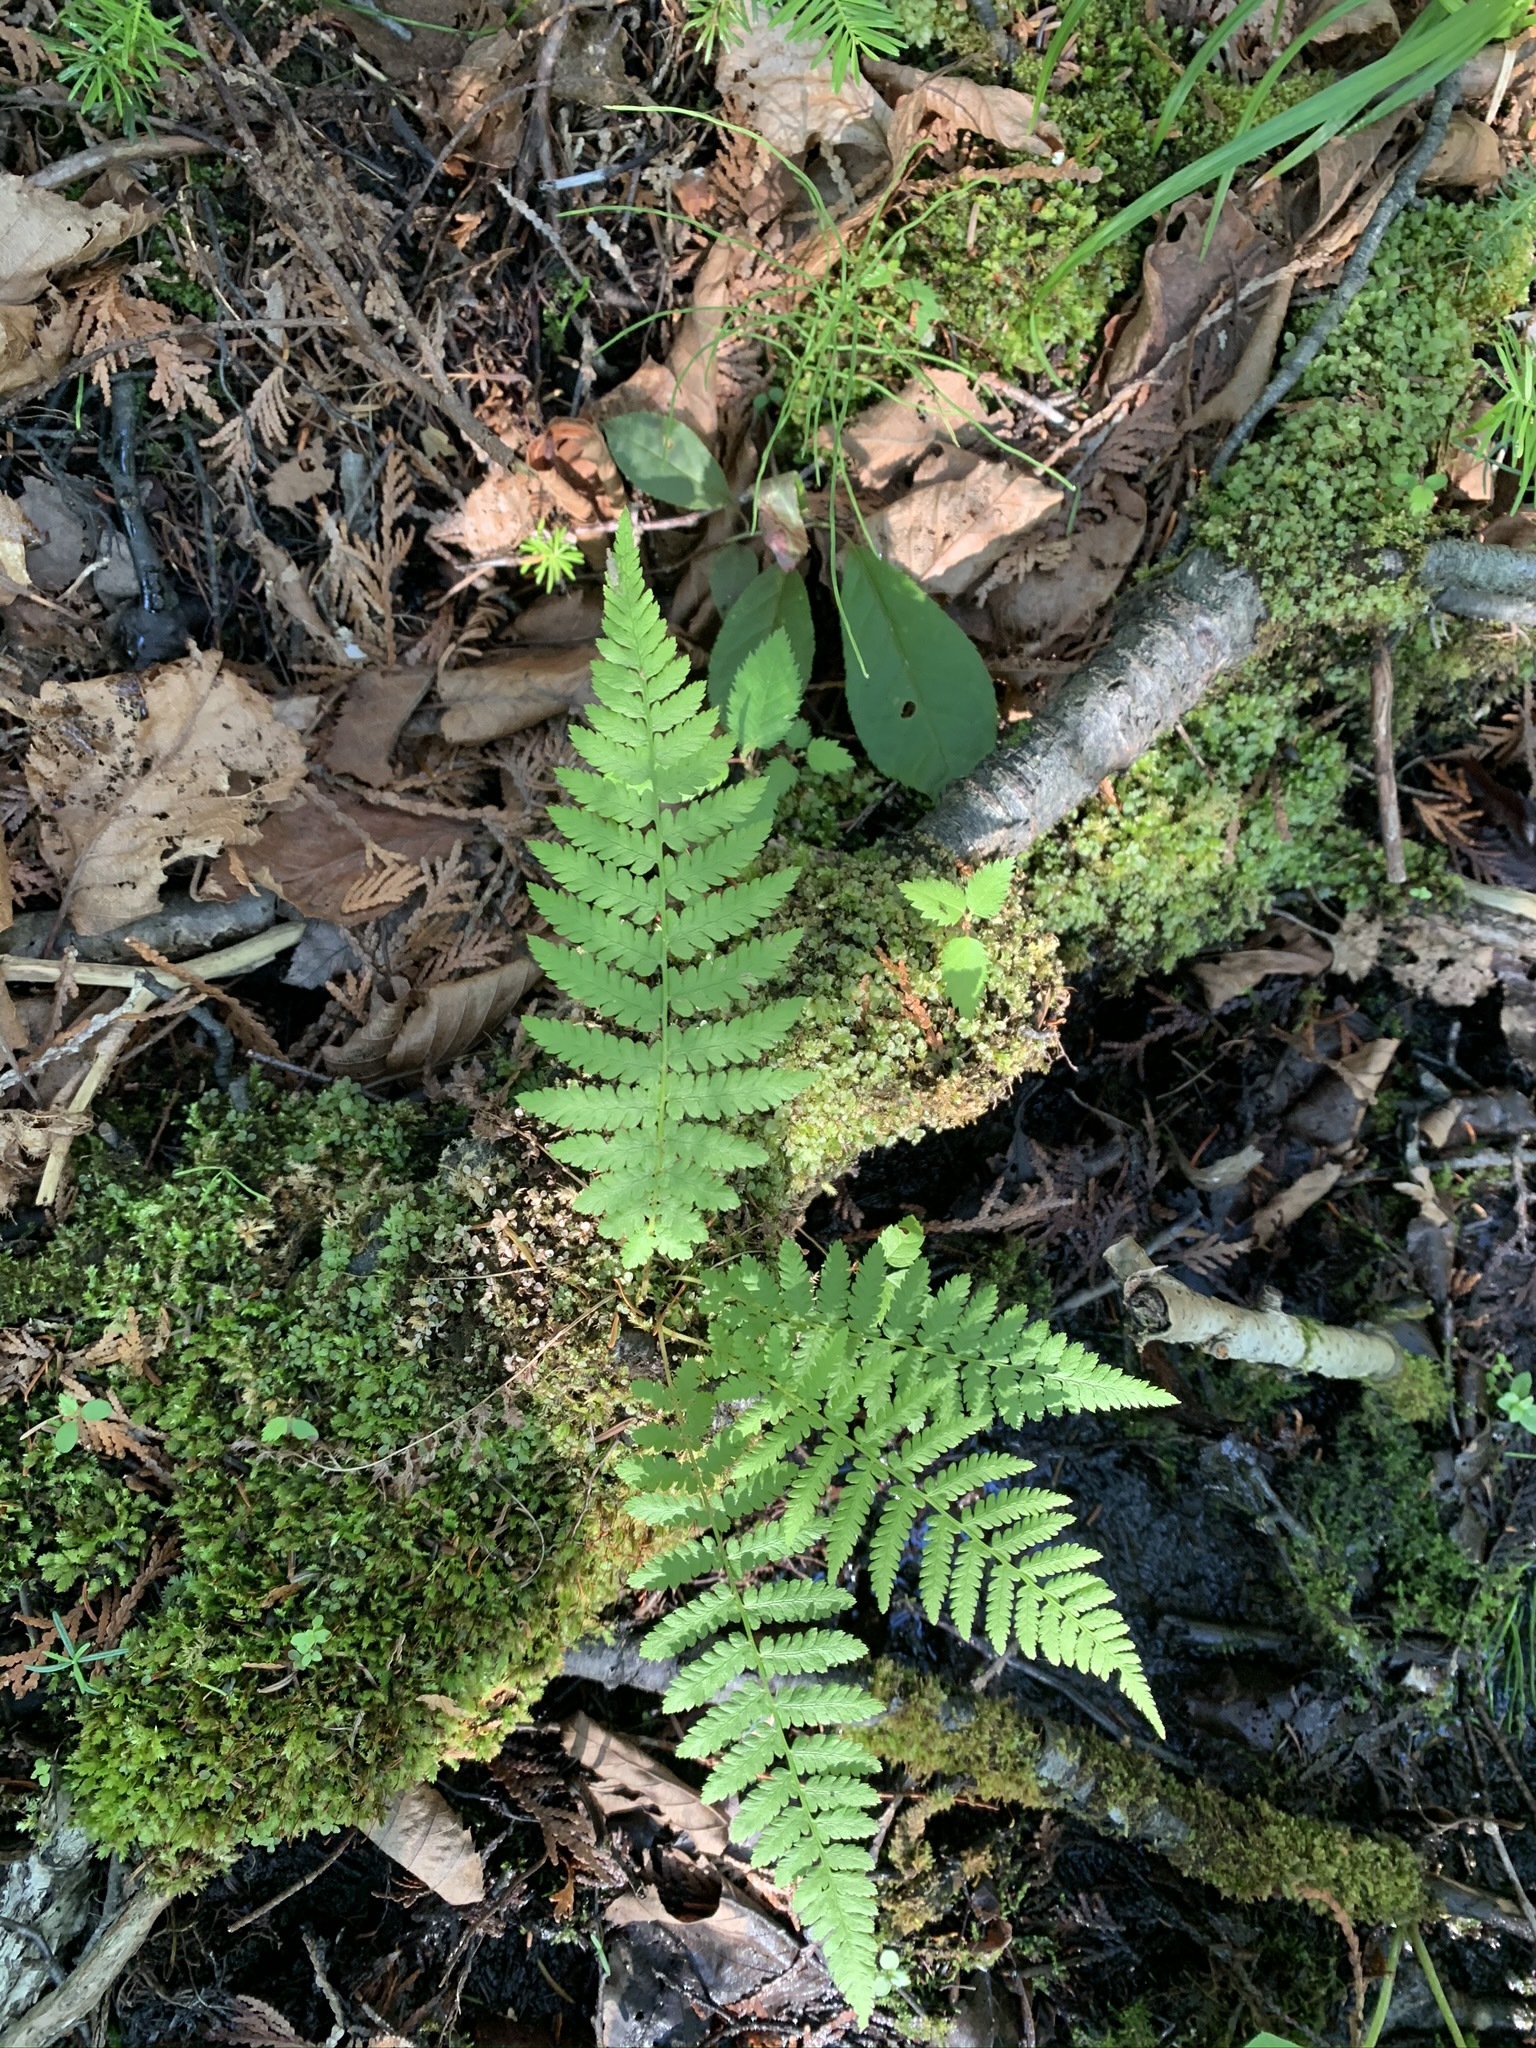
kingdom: Plantae
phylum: Tracheophyta
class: Polypodiopsida
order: Polypodiales
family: Athyriaceae
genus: Athyrium
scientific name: Athyrium angustum
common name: Northern lady fern
